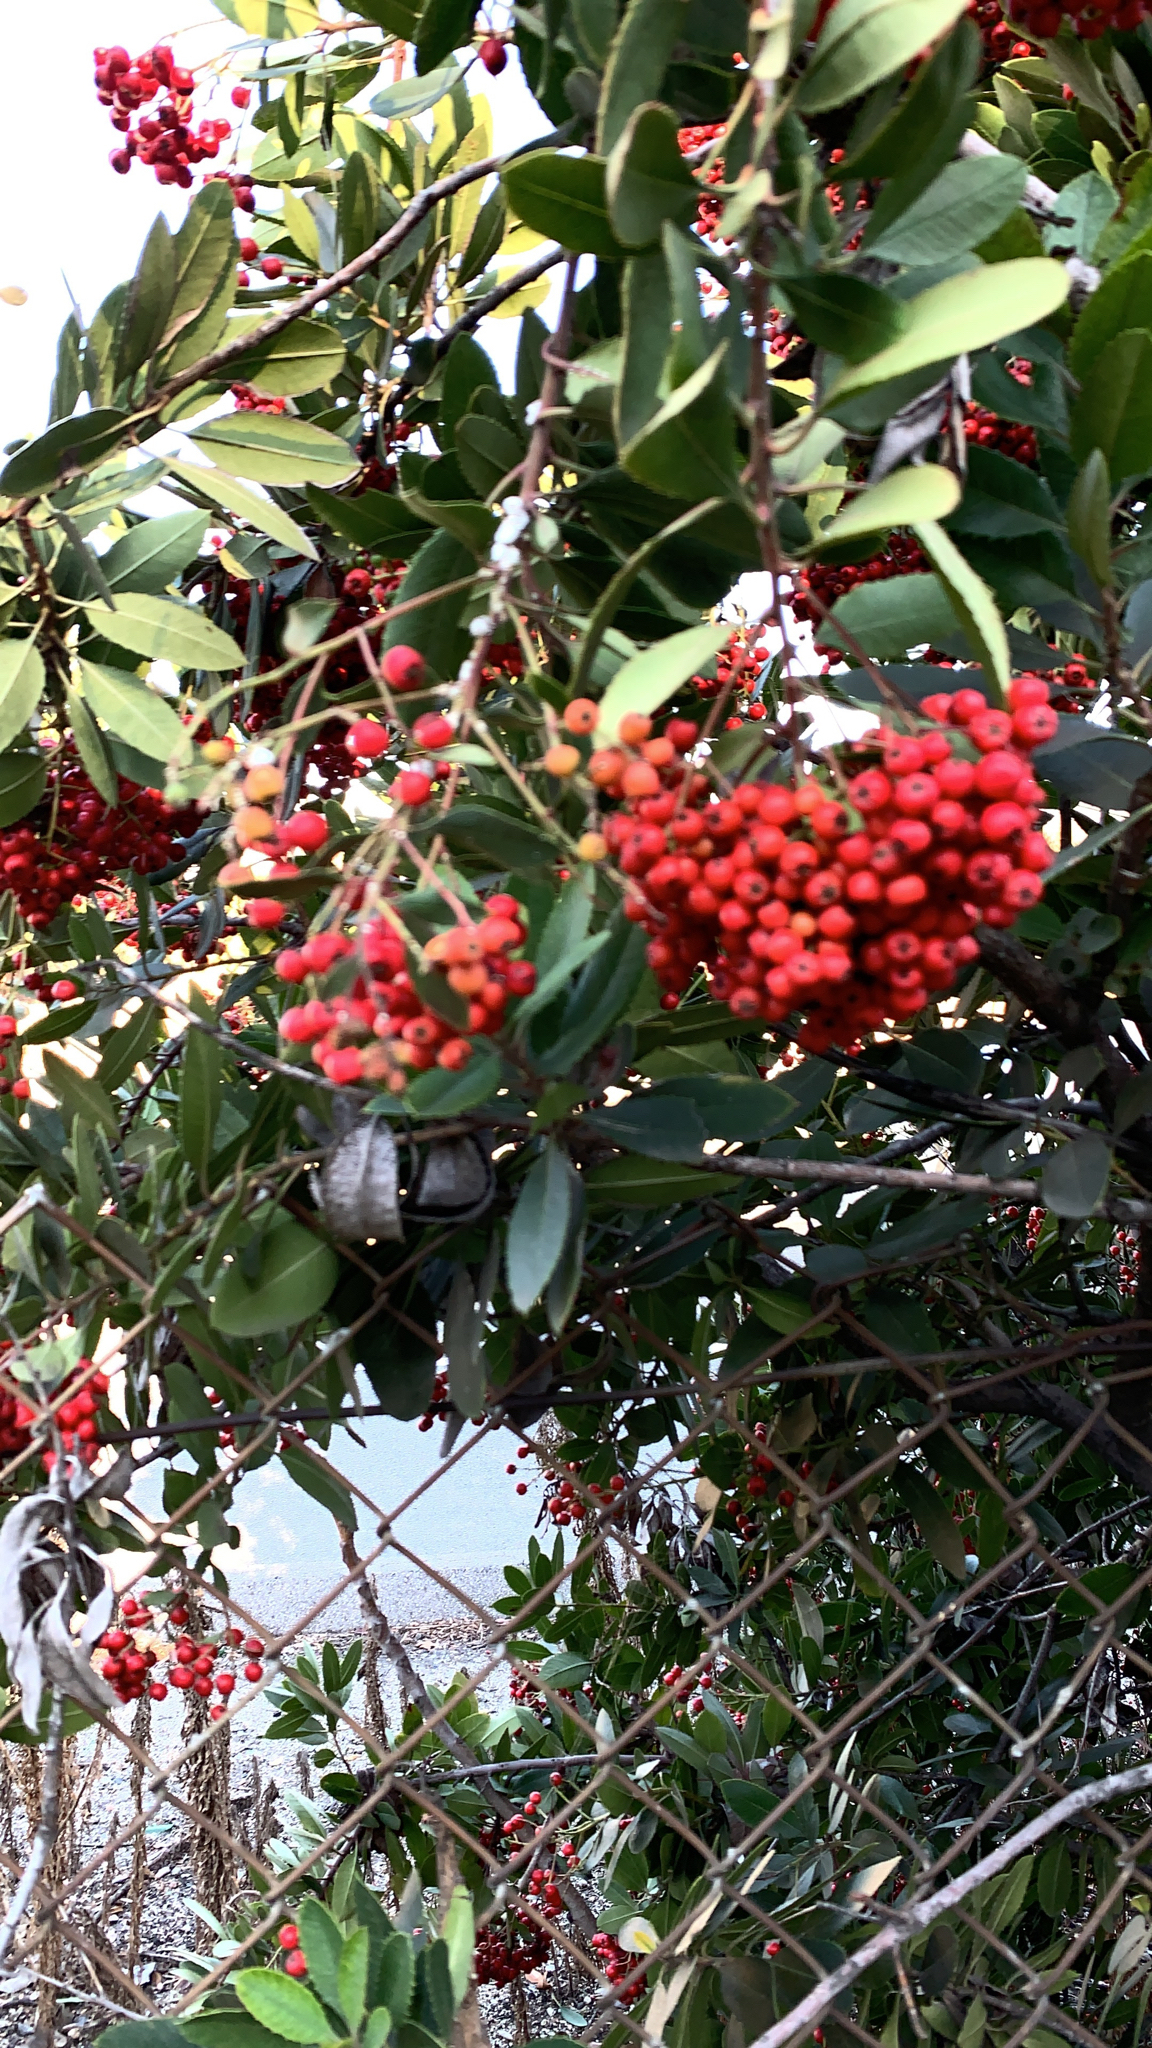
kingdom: Plantae
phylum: Tracheophyta
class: Magnoliopsida
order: Rosales
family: Rosaceae
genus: Heteromeles
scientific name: Heteromeles arbutifolia
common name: California-holly
